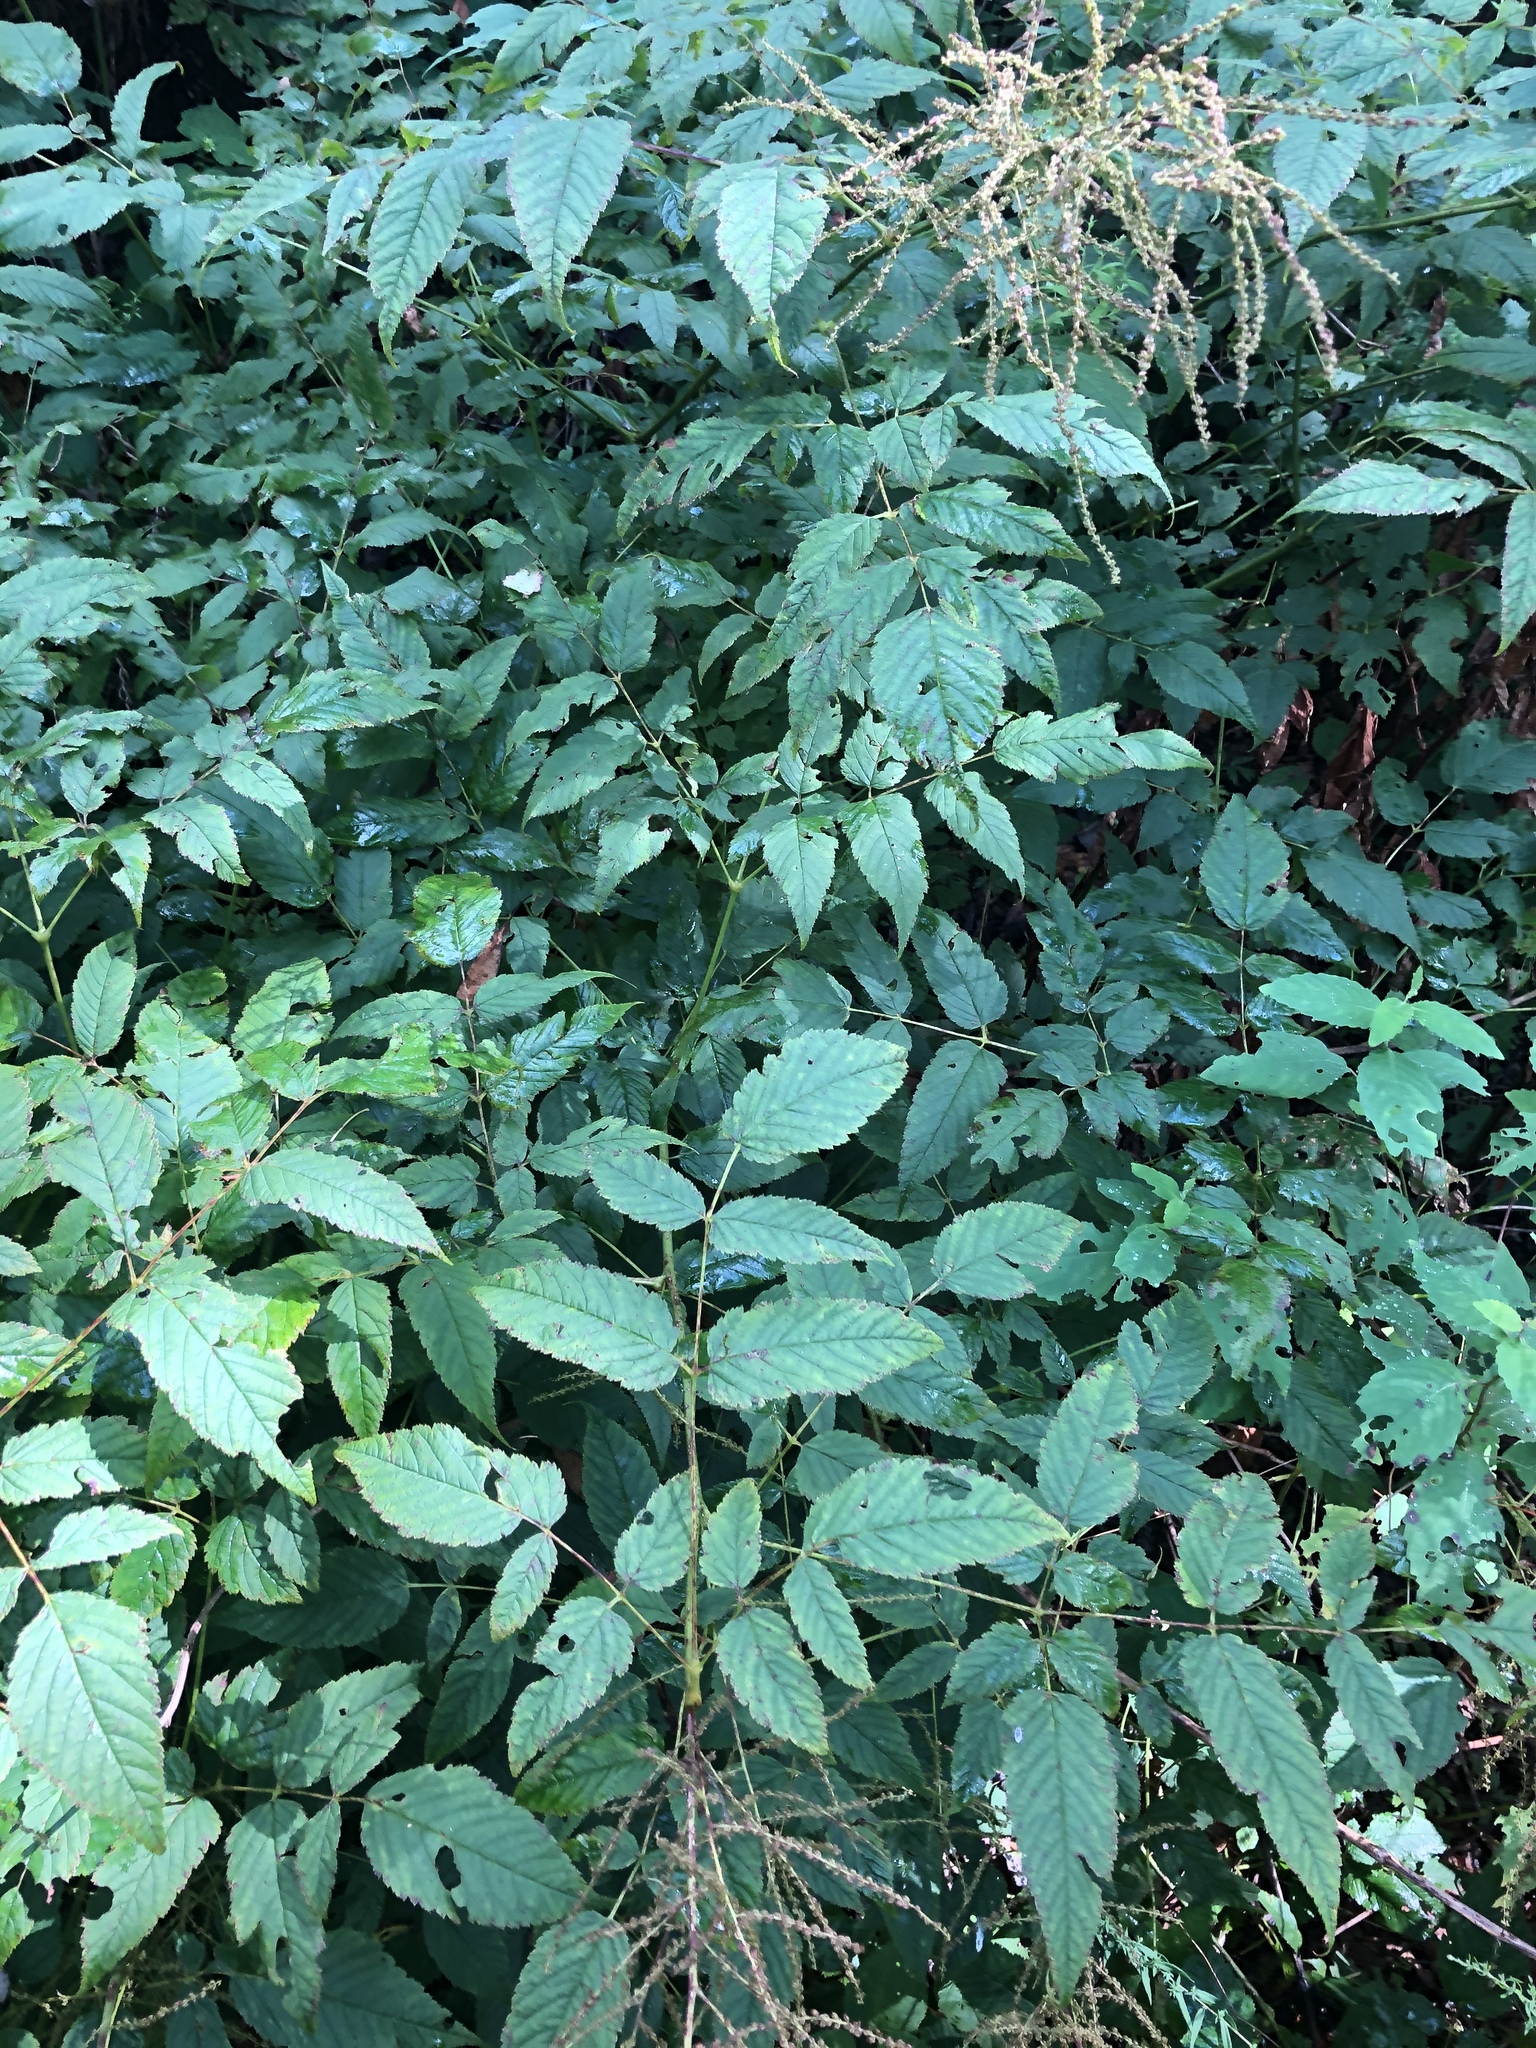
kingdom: Plantae
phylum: Tracheophyta
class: Magnoliopsida
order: Rosales
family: Rosaceae
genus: Aruncus
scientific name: Aruncus dioicus
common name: Buck's-beard
